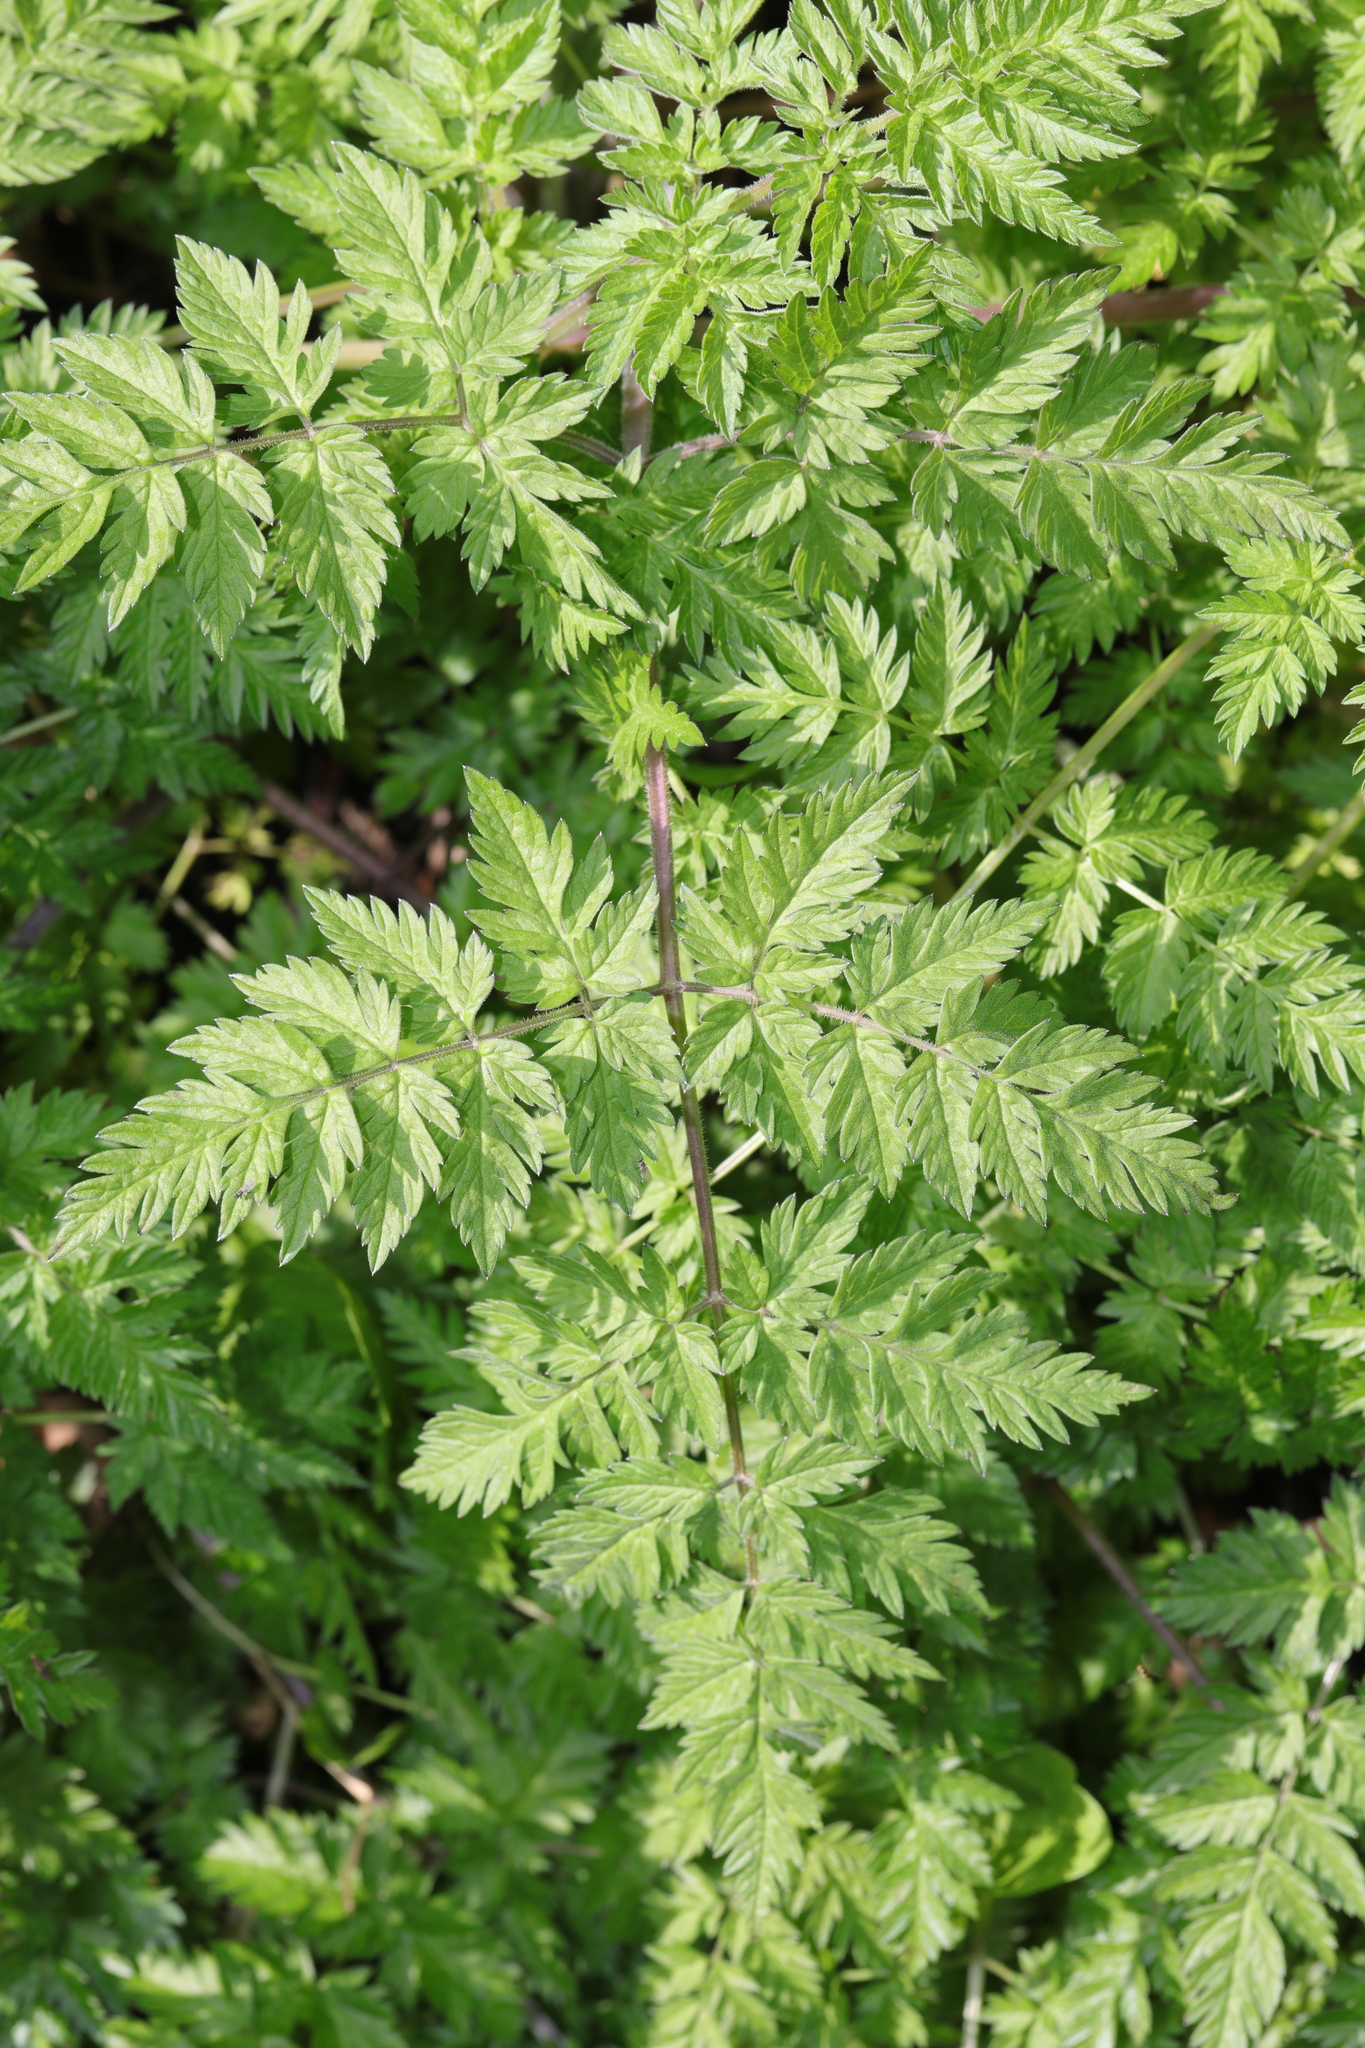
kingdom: Plantae
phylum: Tracheophyta
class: Magnoliopsida
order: Apiales
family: Apiaceae
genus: Anthriscus
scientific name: Anthriscus sylvestris
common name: Cow parsley
